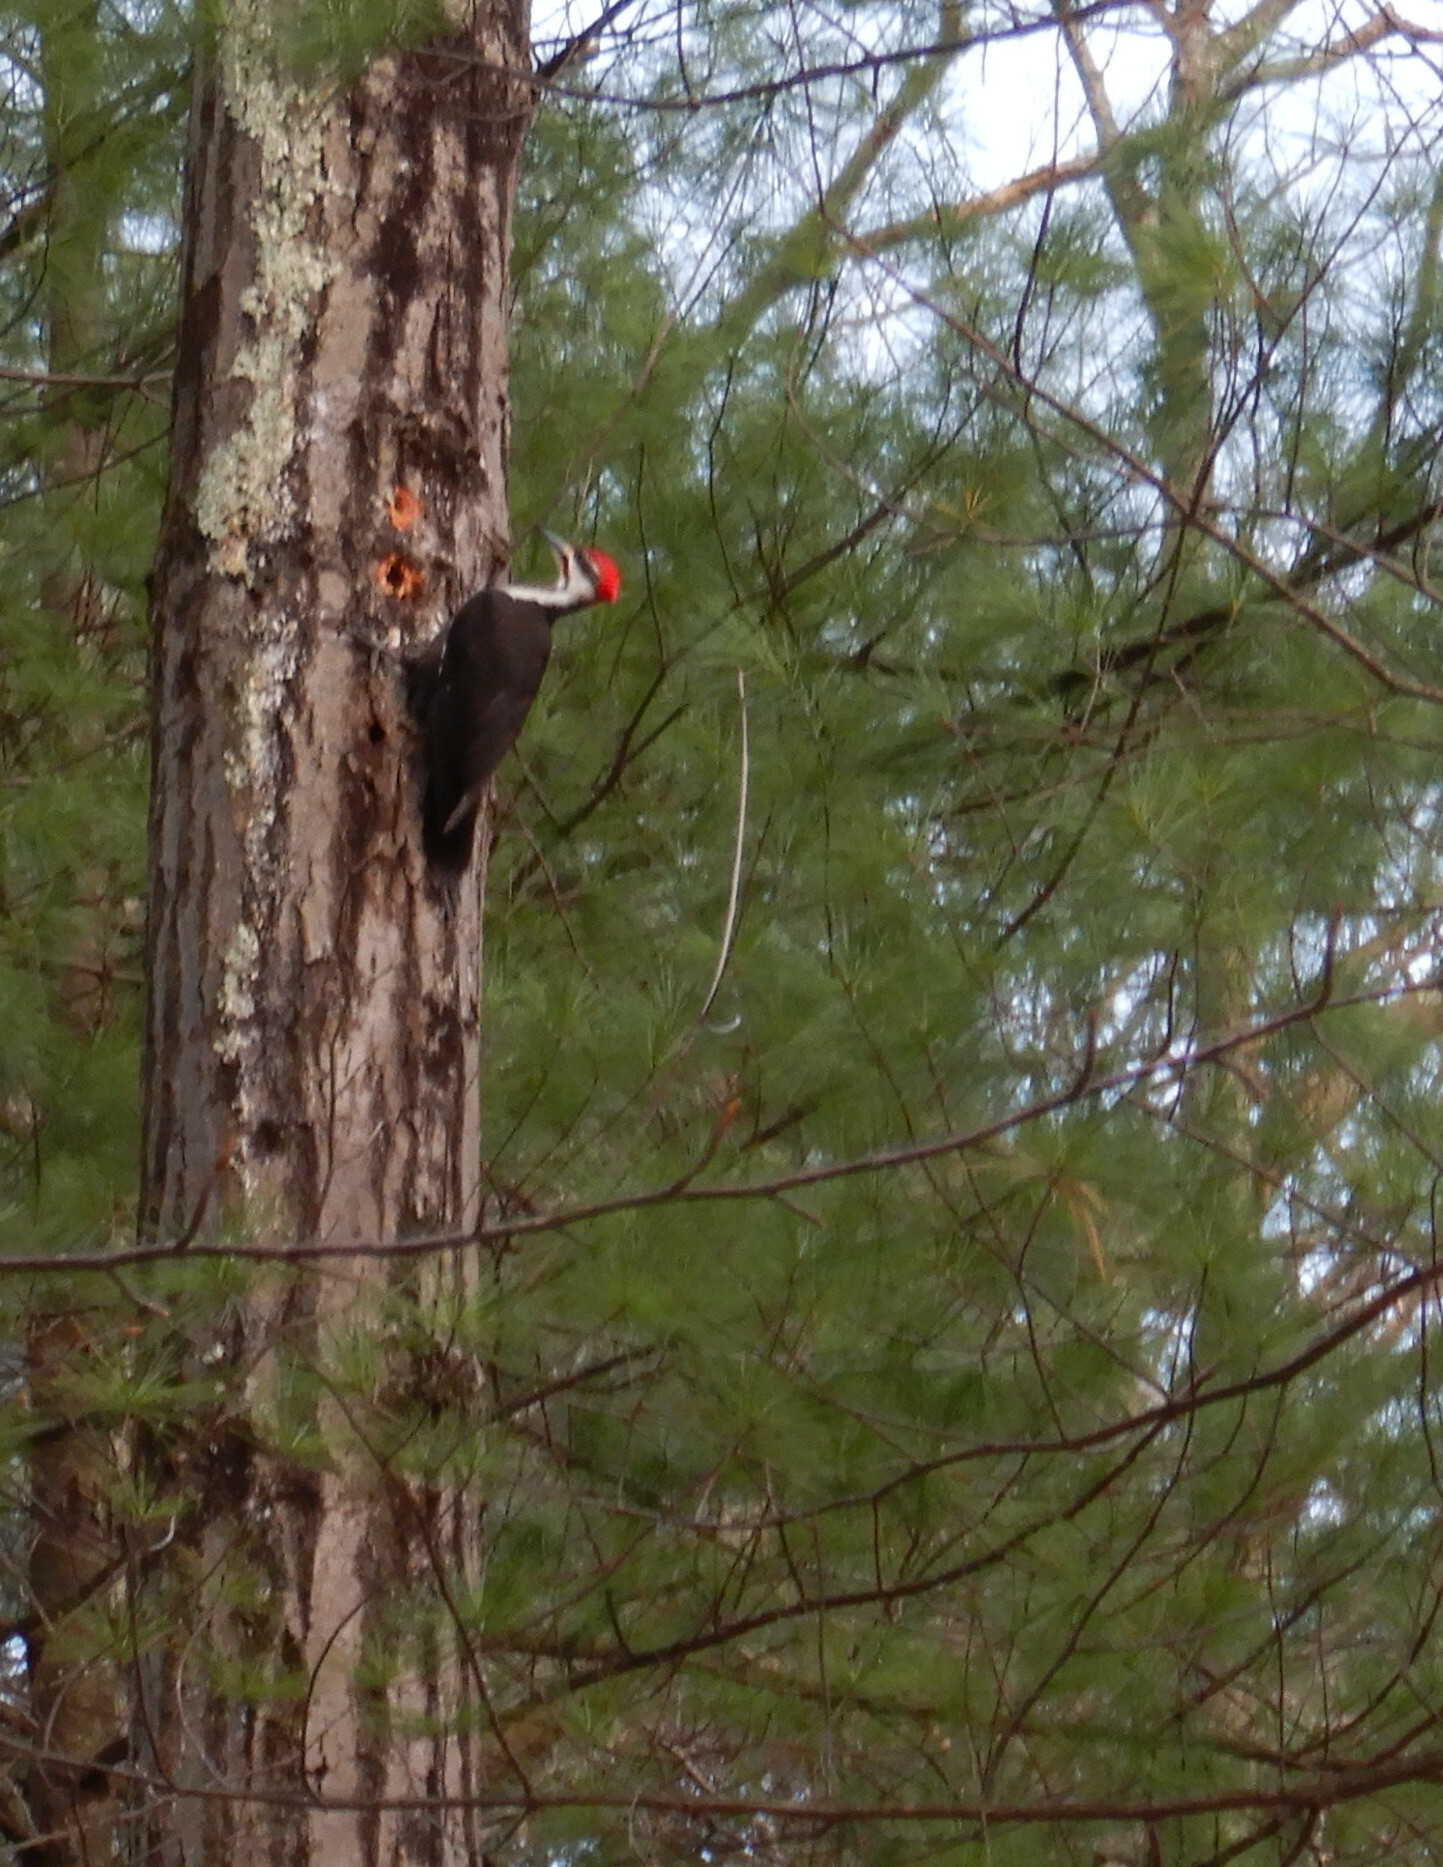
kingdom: Animalia
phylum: Chordata
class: Aves
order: Piciformes
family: Picidae
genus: Dryocopus
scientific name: Dryocopus pileatus
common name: Pileated woodpecker
